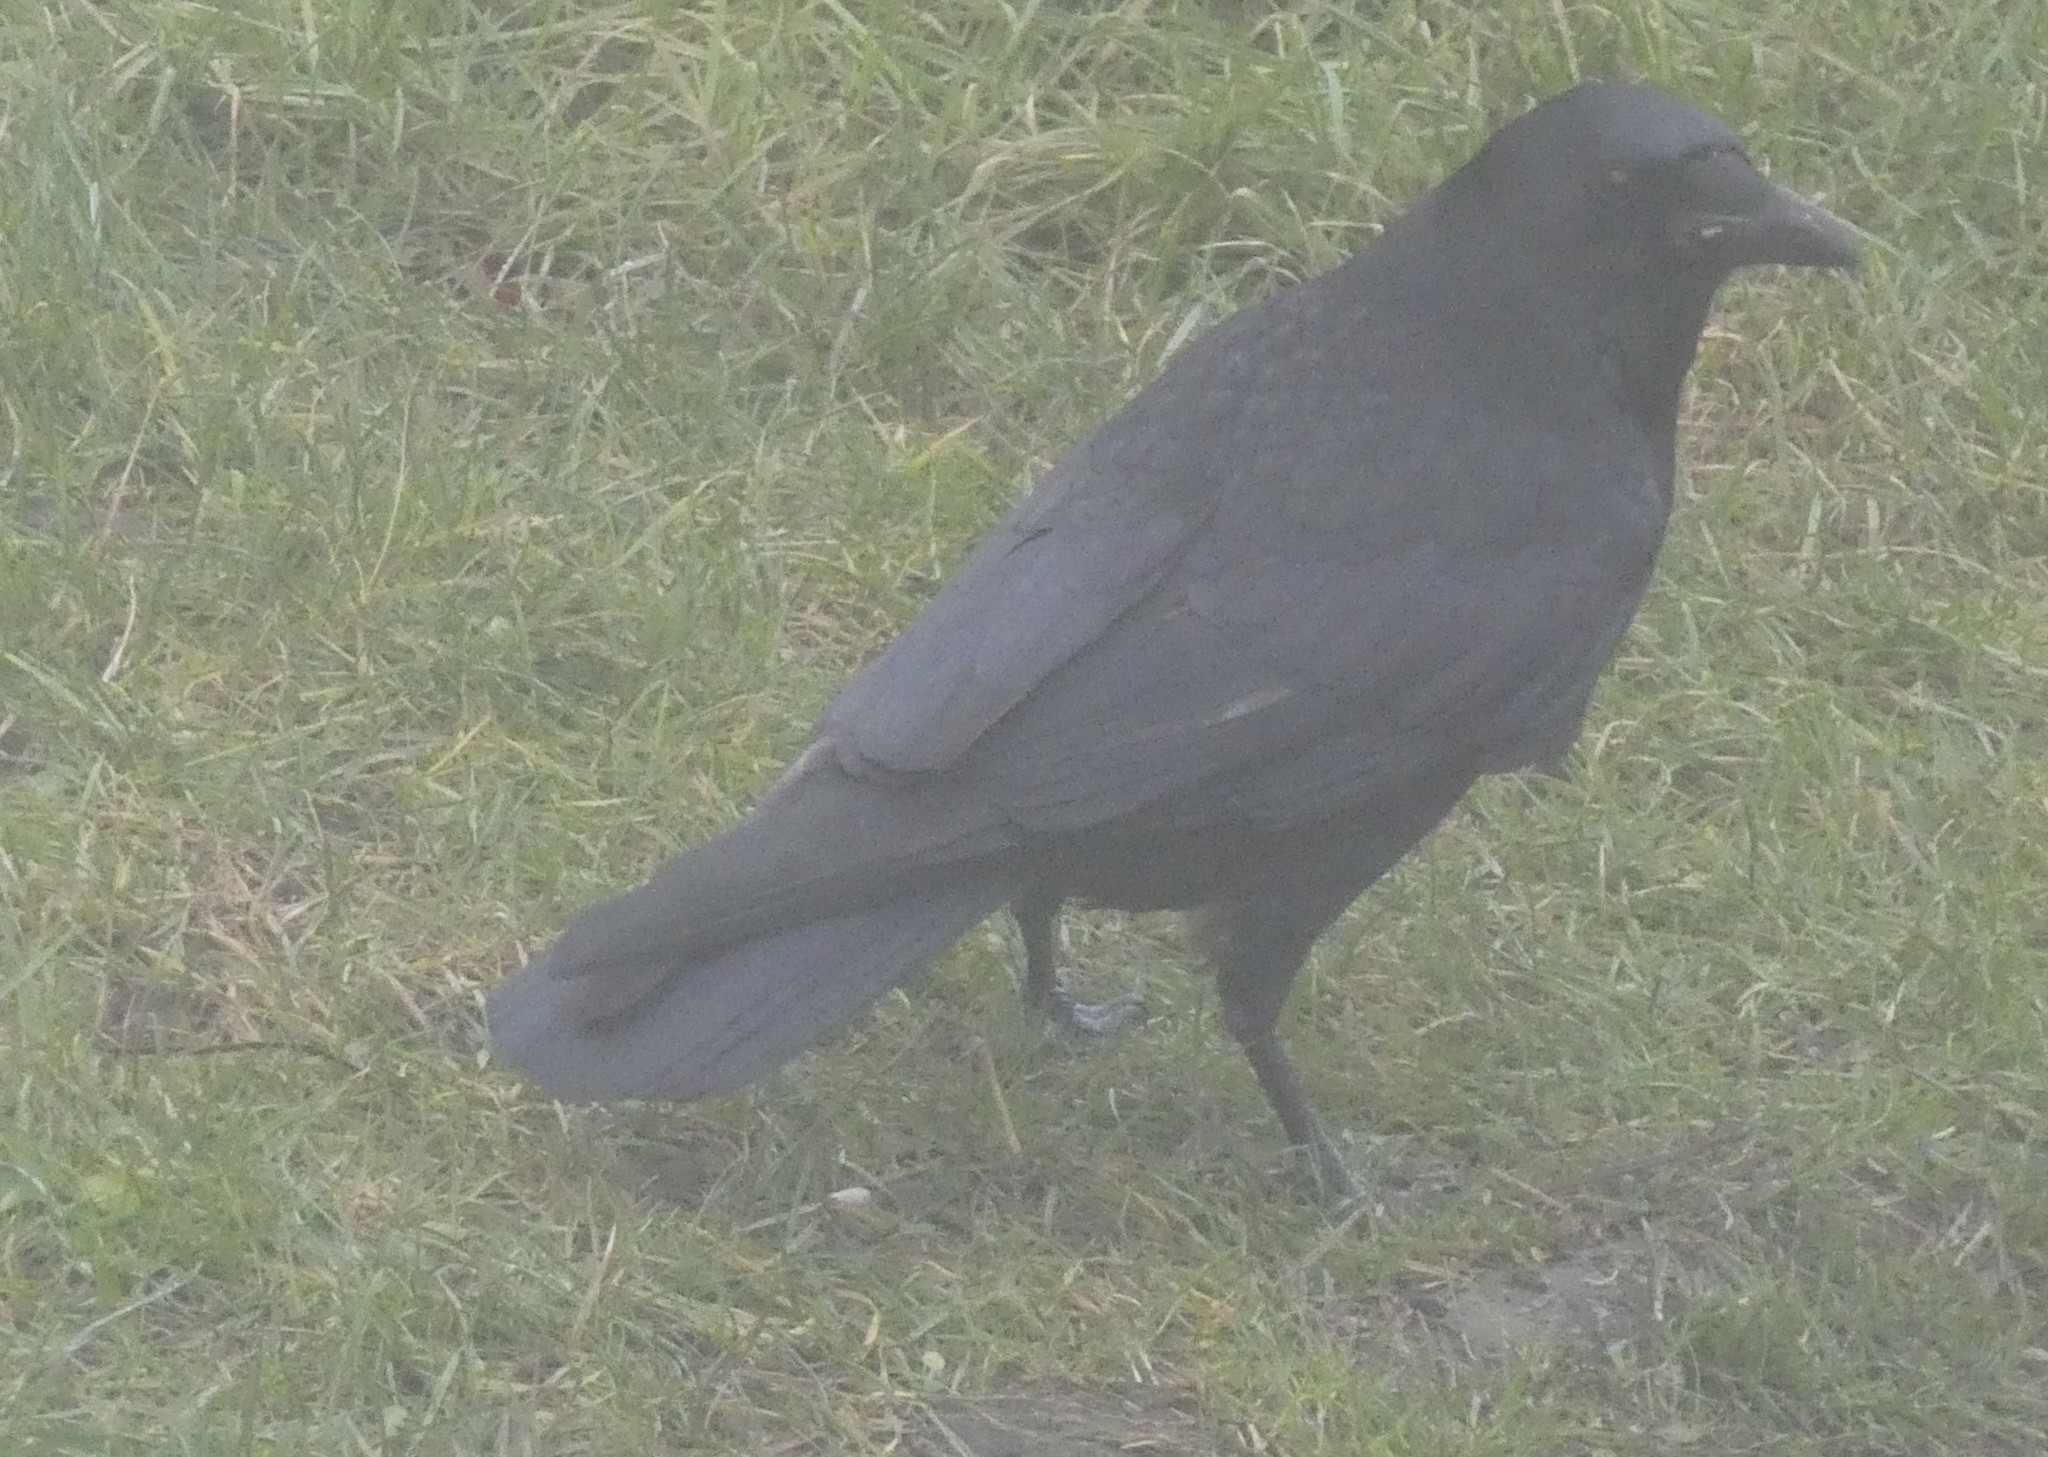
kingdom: Animalia
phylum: Chordata
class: Aves
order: Passeriformes
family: Corvidae
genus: Corvus
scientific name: Corvus corone
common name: Carrion crow
